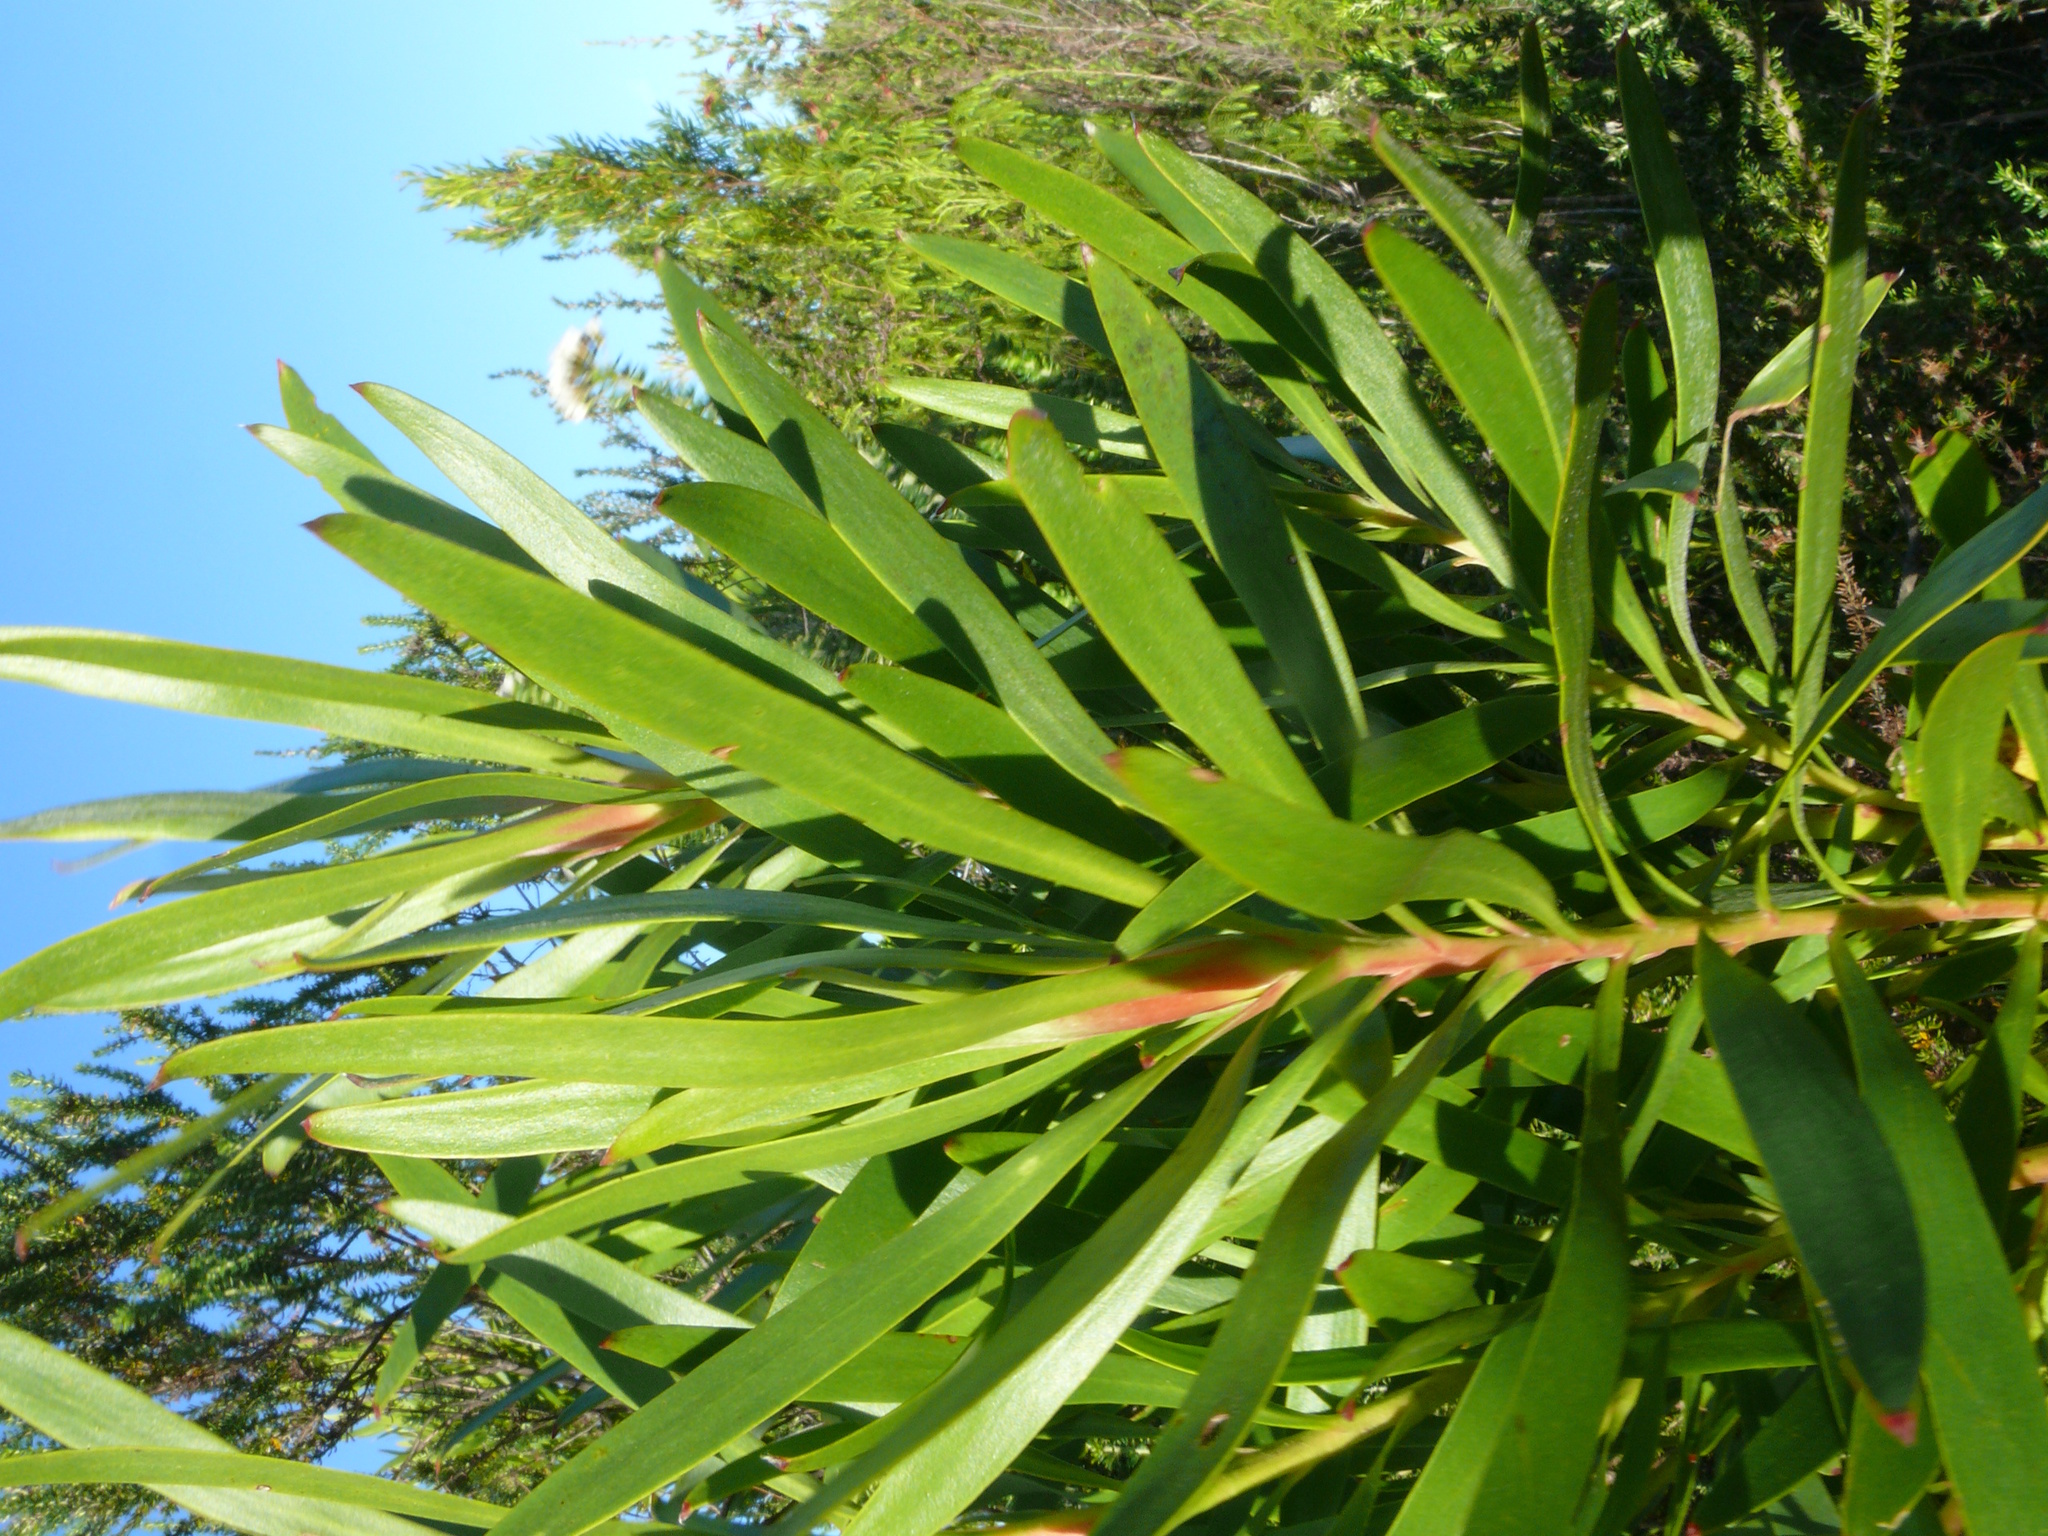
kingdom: Plantae
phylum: Tracheophyta
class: Magnoliopsida
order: Proteales
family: Proteaceae
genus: Leucadendron
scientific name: Leucadendron eucalyptifolium
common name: Gum-leaved conebush
